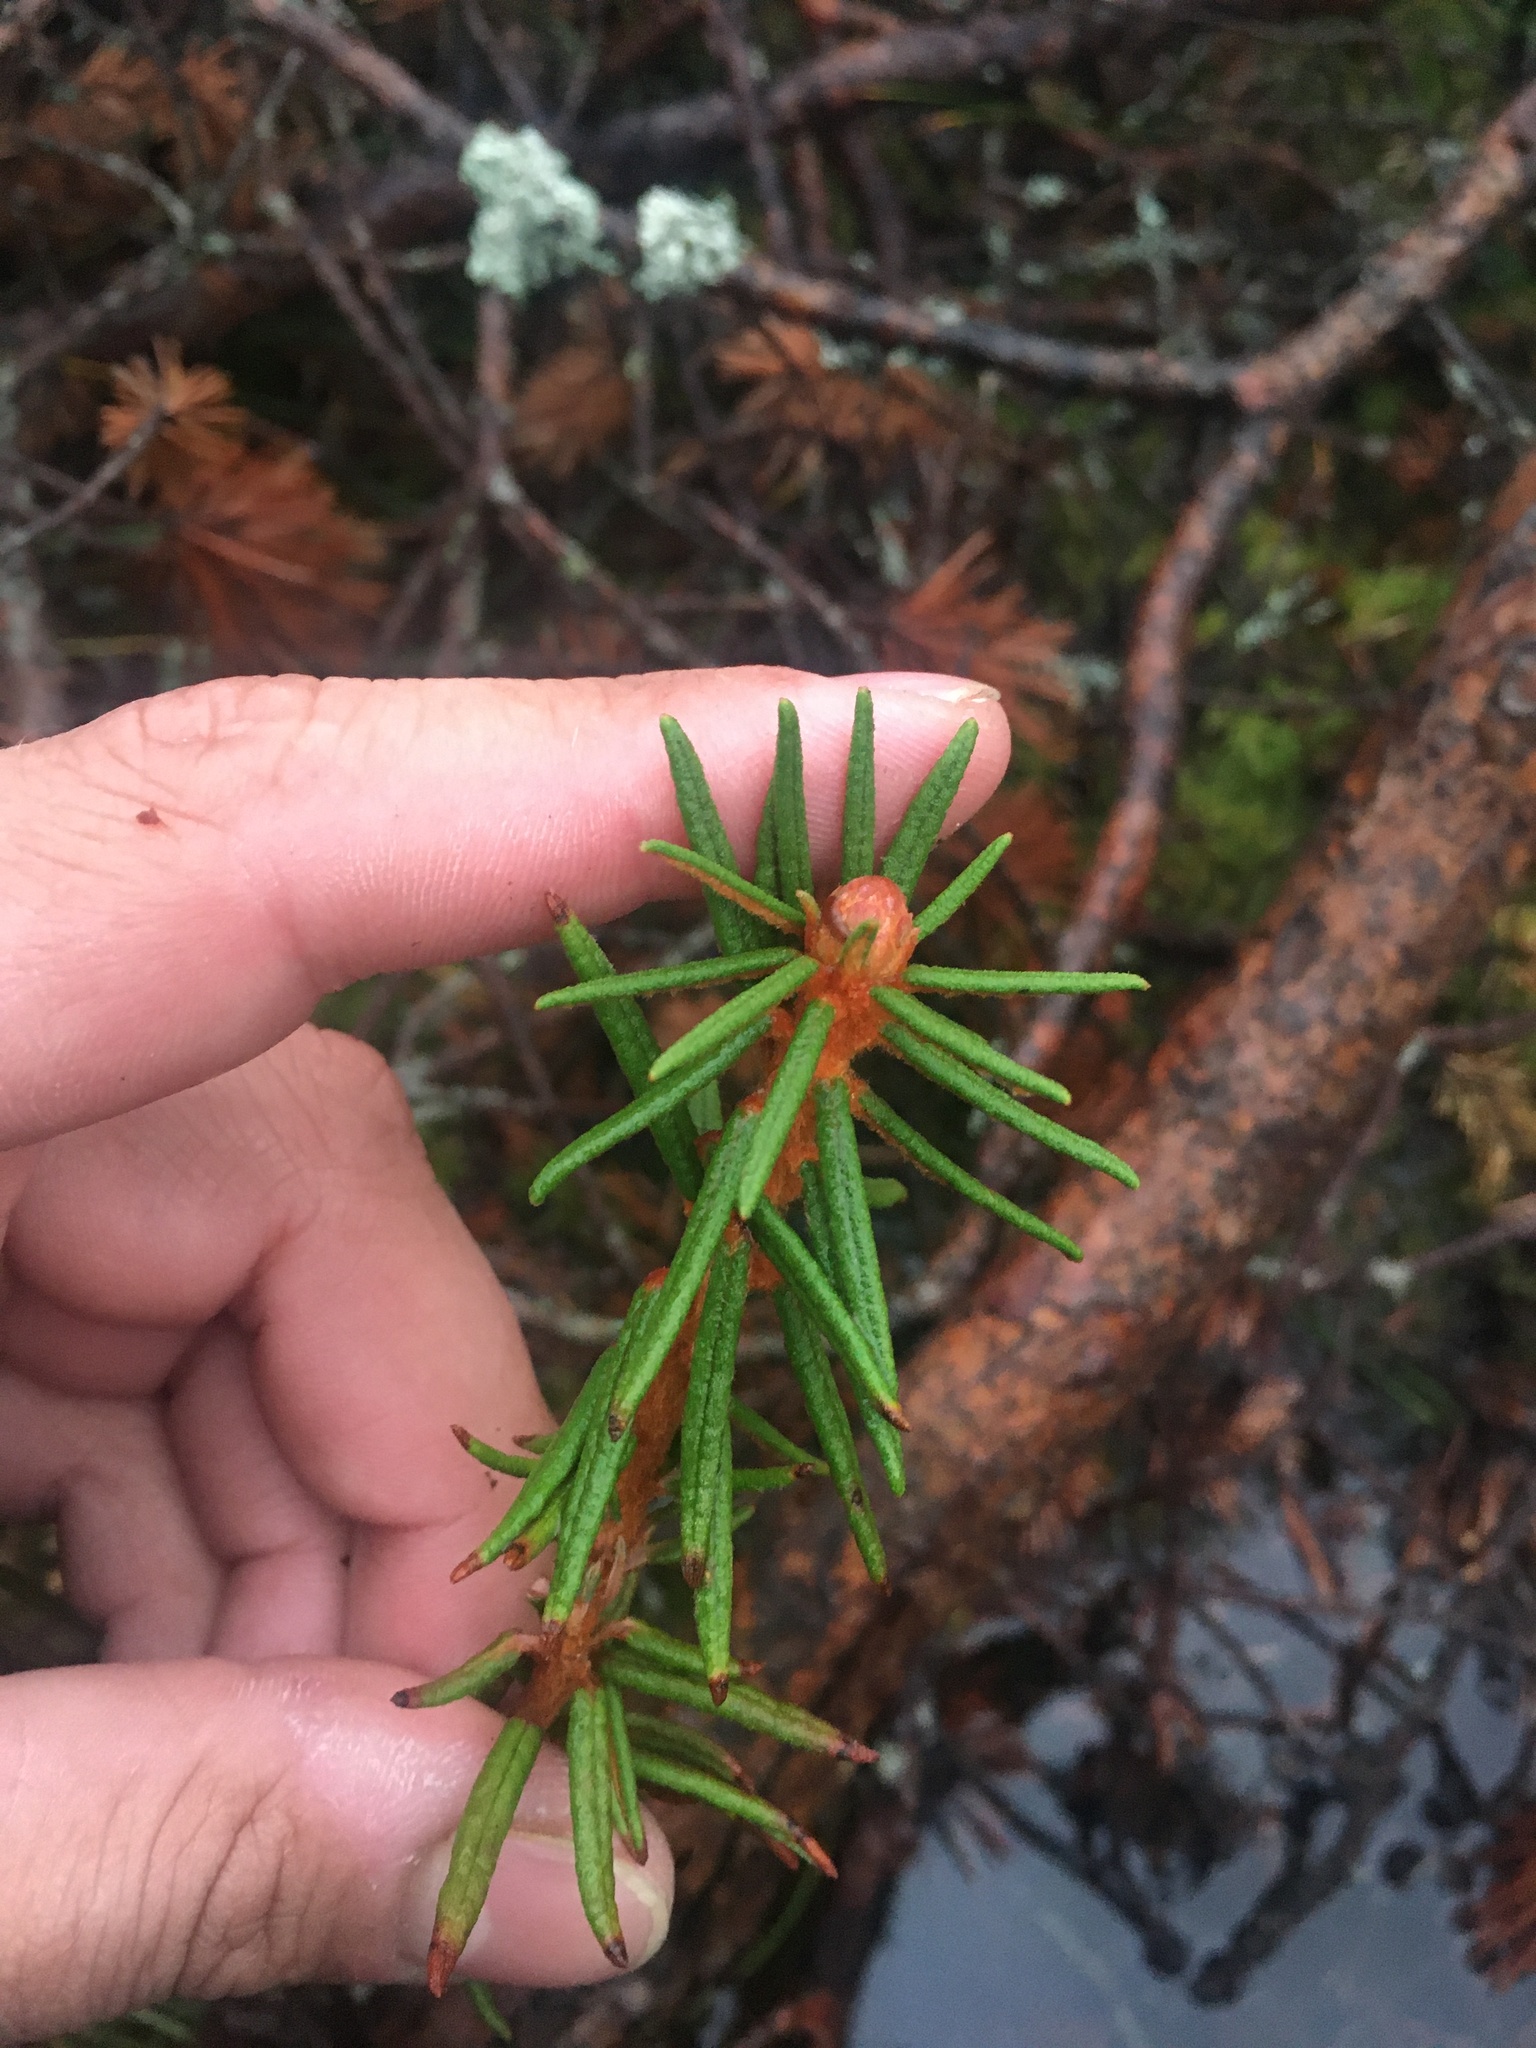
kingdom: Plantae
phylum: Tracheophyta
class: Magnoliopsida
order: Ericales
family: Ericaceae
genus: Rhododendron
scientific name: Rhododendron tomentosum
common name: Marsh labrador tea
